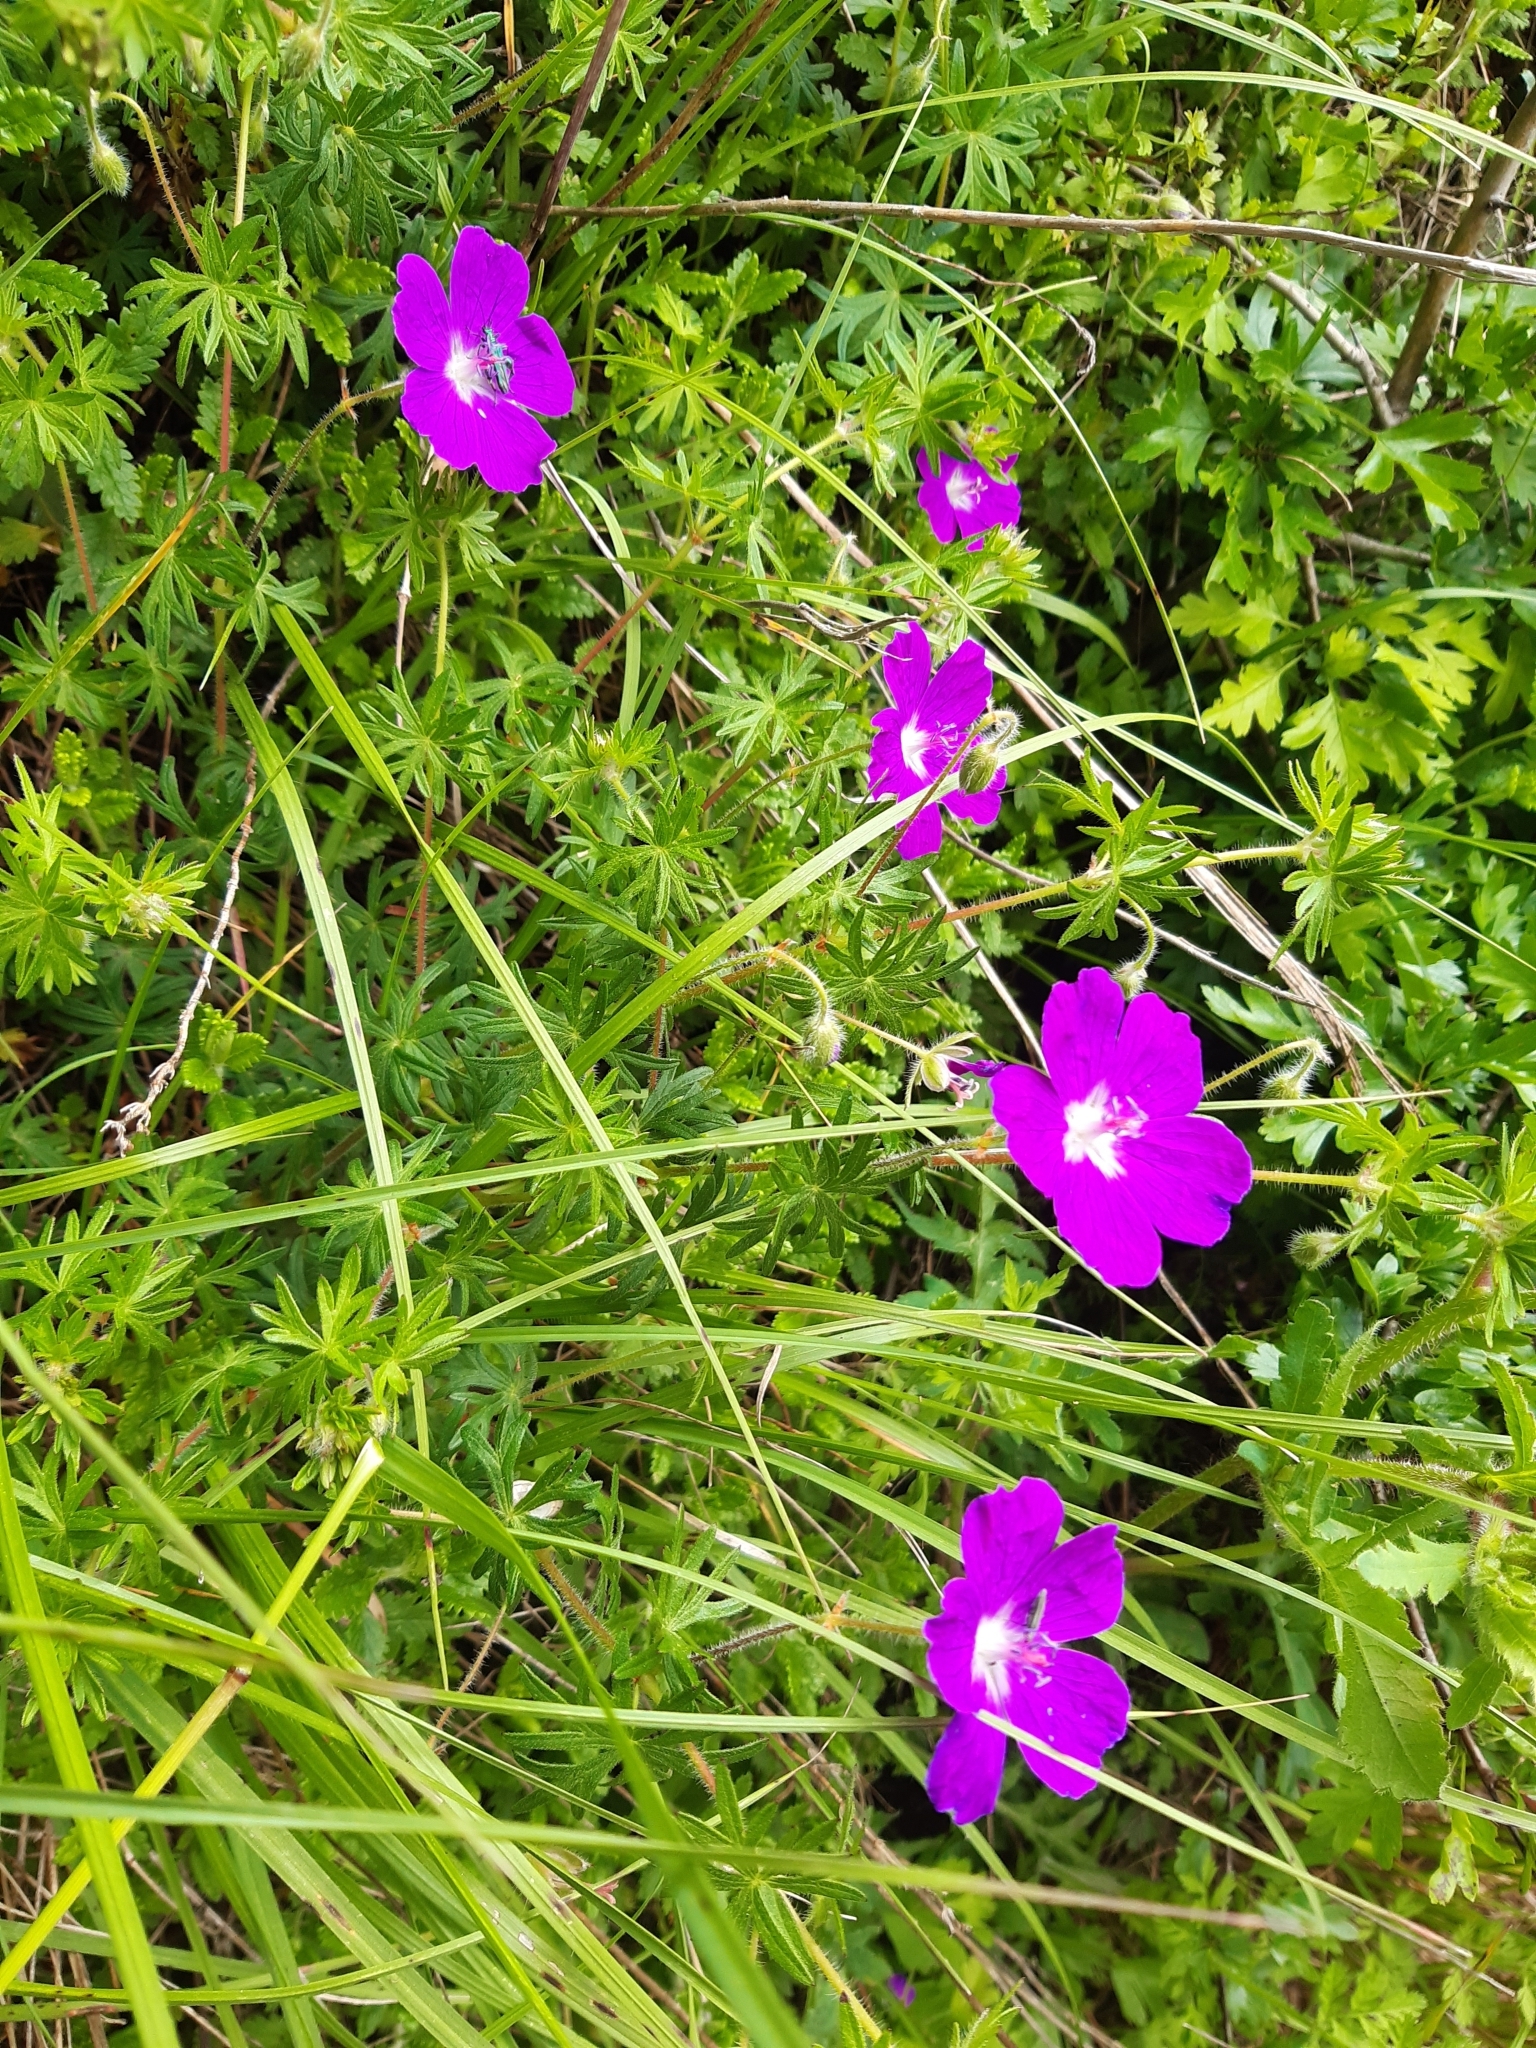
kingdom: Plantae
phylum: Tracheophyta
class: Magnoliopsida
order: Geraniales
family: Geraniaceae
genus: Geranium
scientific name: Geranium sanguineum
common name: Bloody crane's-bill
